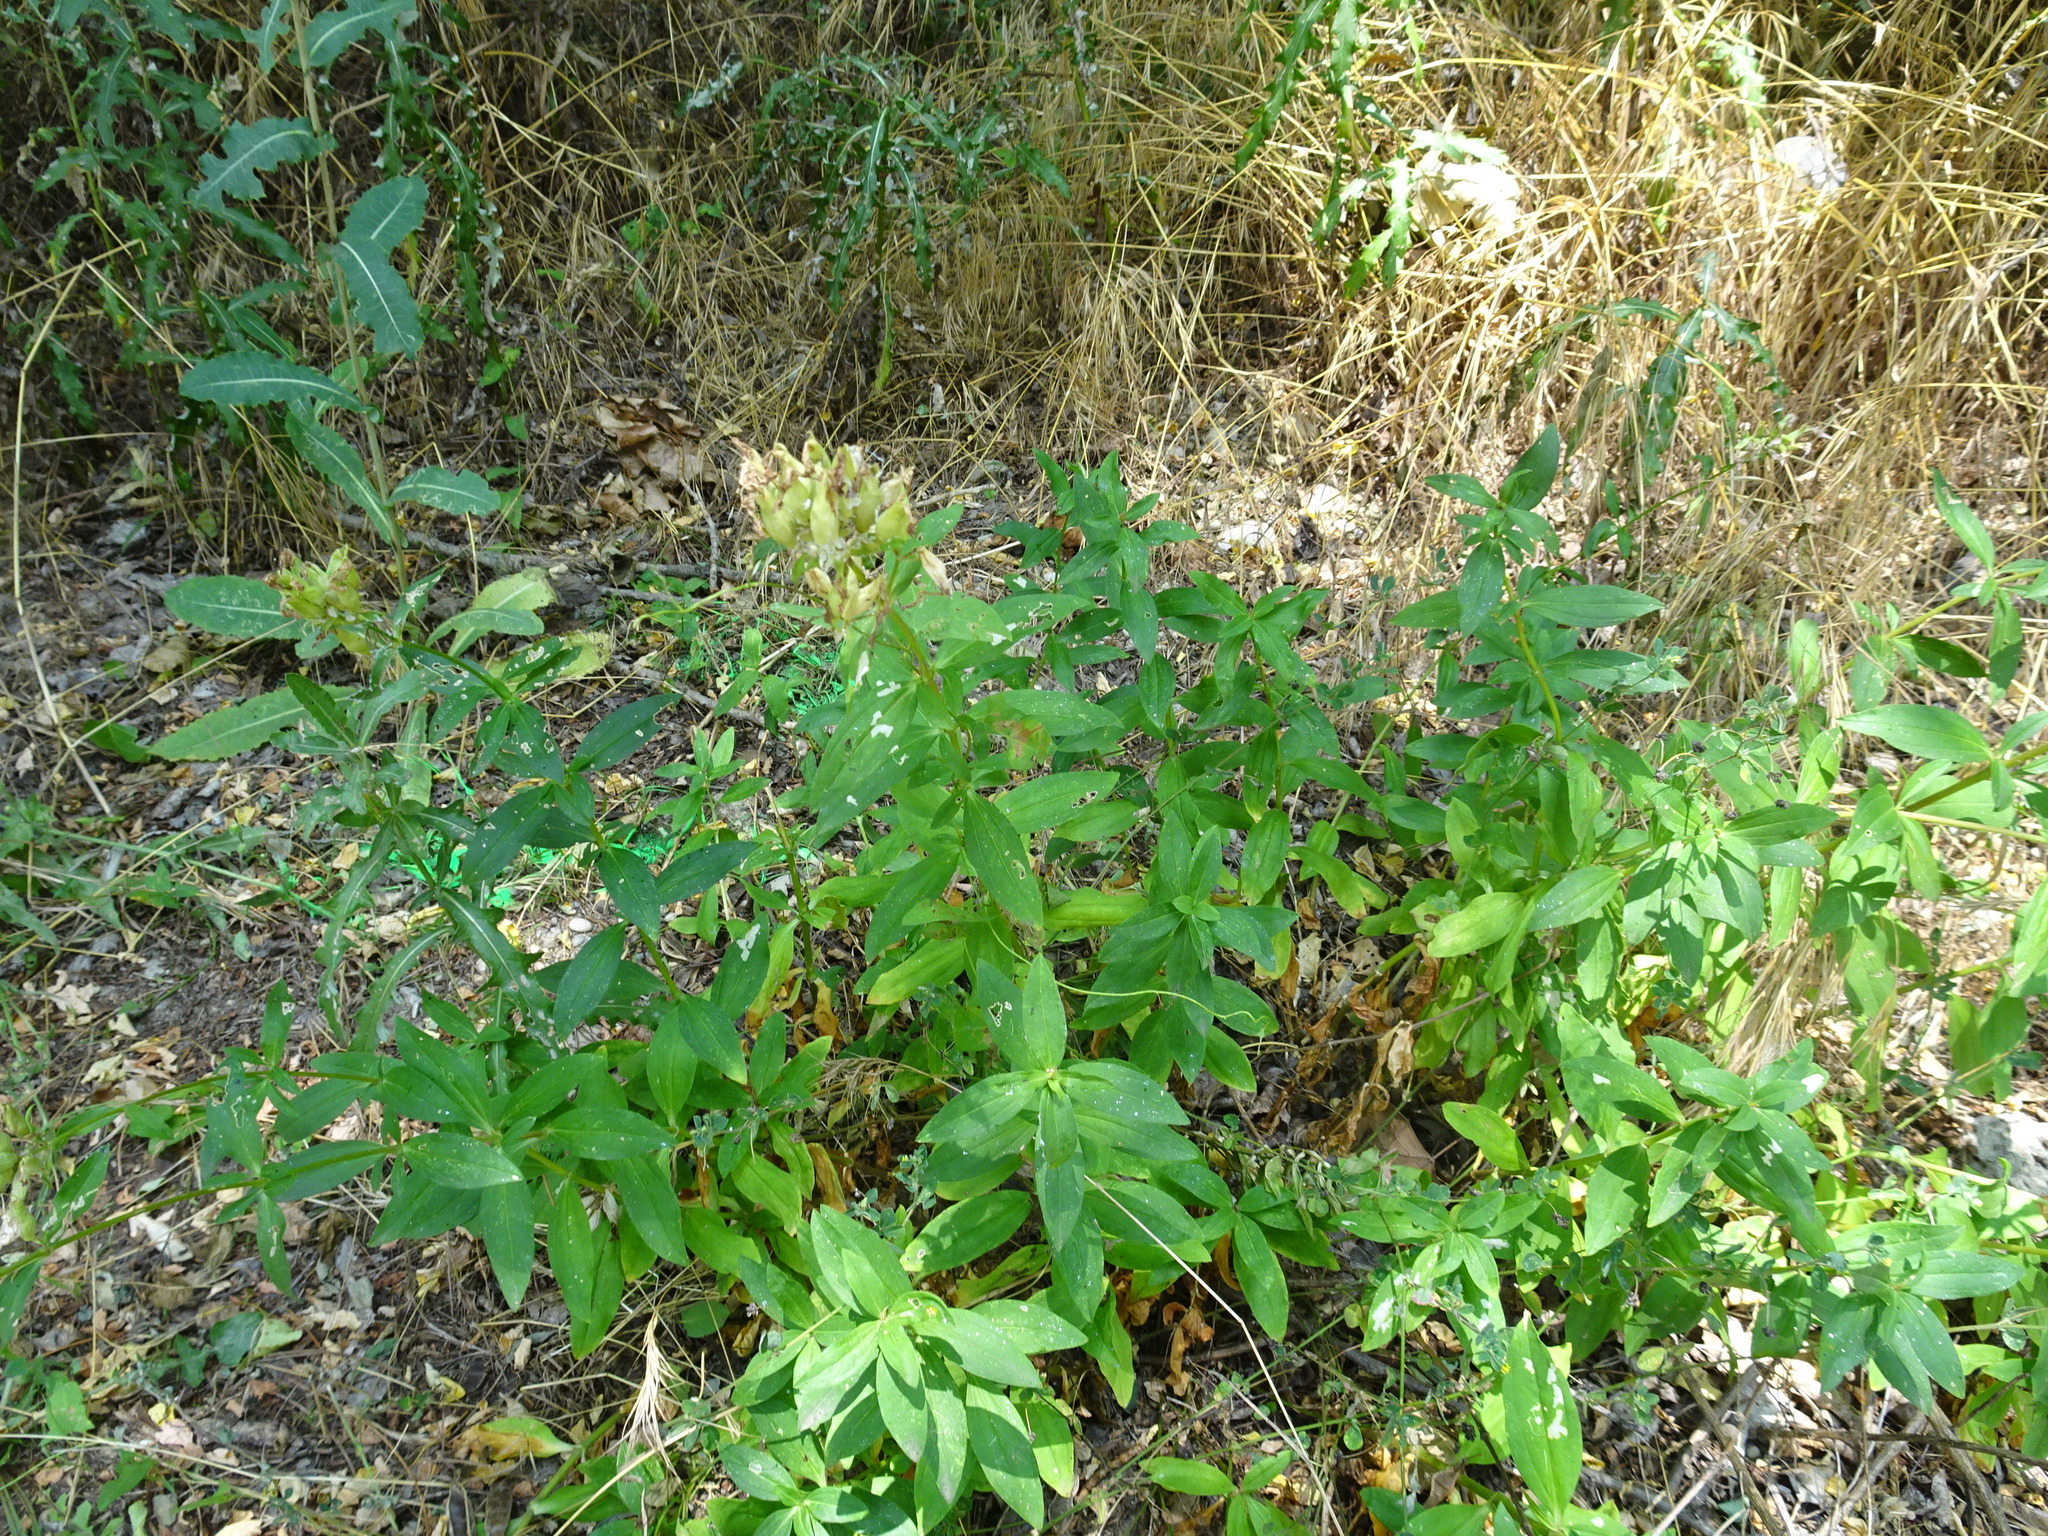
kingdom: Plantae
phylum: Tracheophyta
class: Magnoliopsida
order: Caryophyllales
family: Caryophyllaceae
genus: Saponaria
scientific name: Saponaria officinalis
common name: Soapwort
